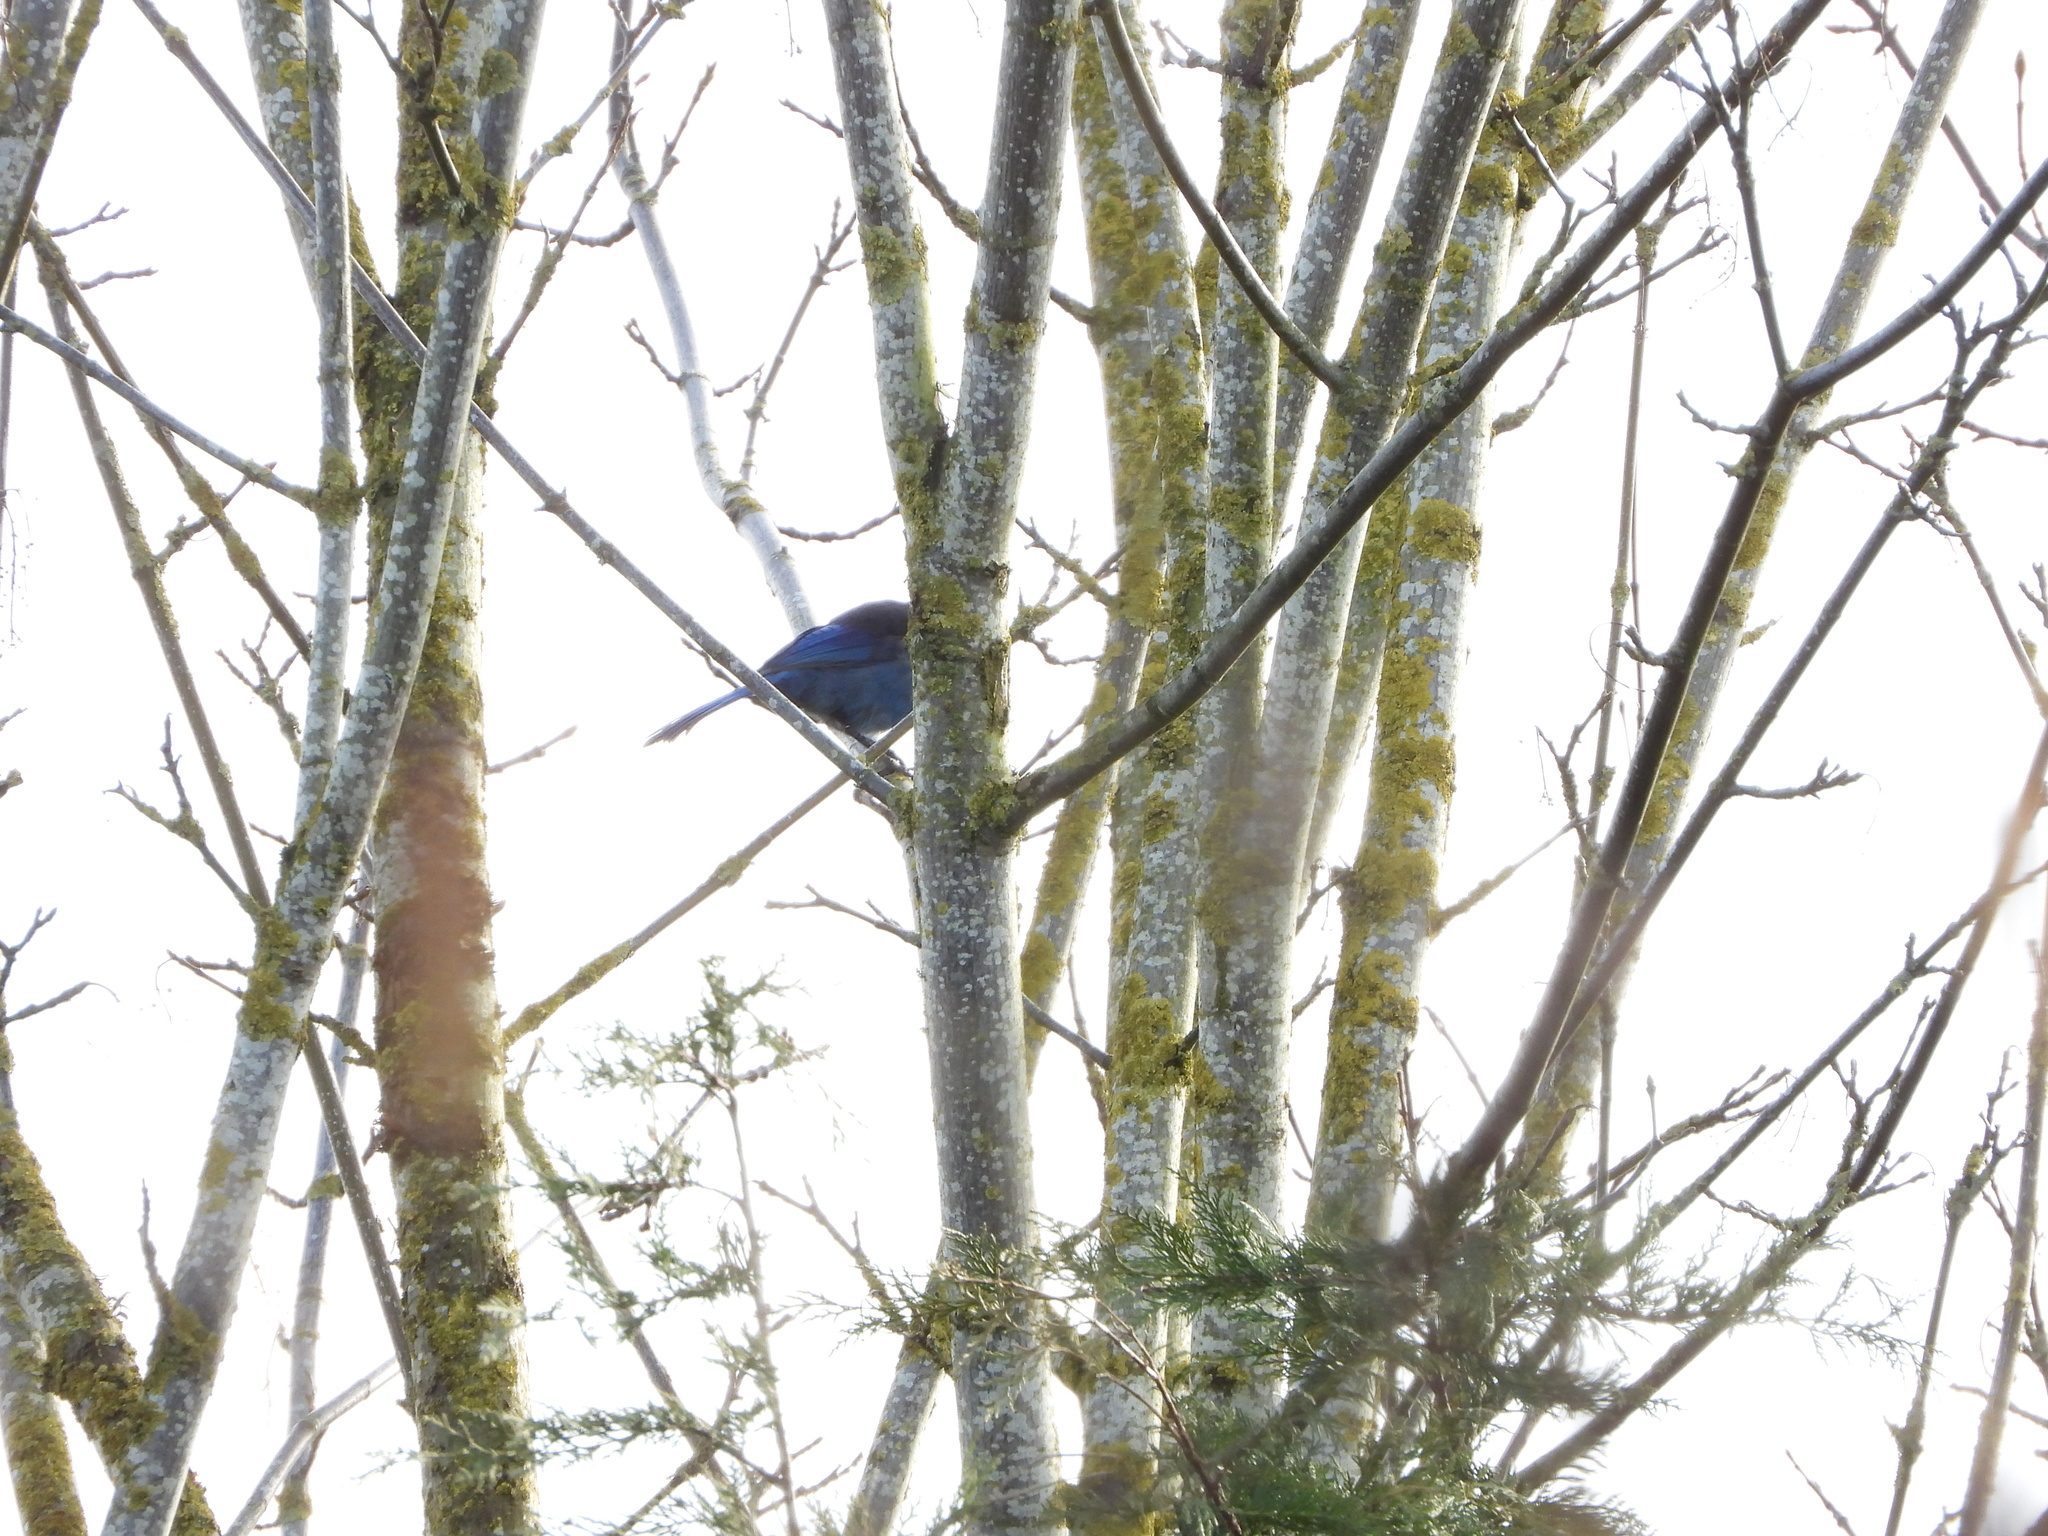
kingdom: Animalia
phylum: Chordata
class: Aves
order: Passeriformes
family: Corvidae
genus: Cyanocitta
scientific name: Cyanocitta stelleri
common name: Steller's jay
